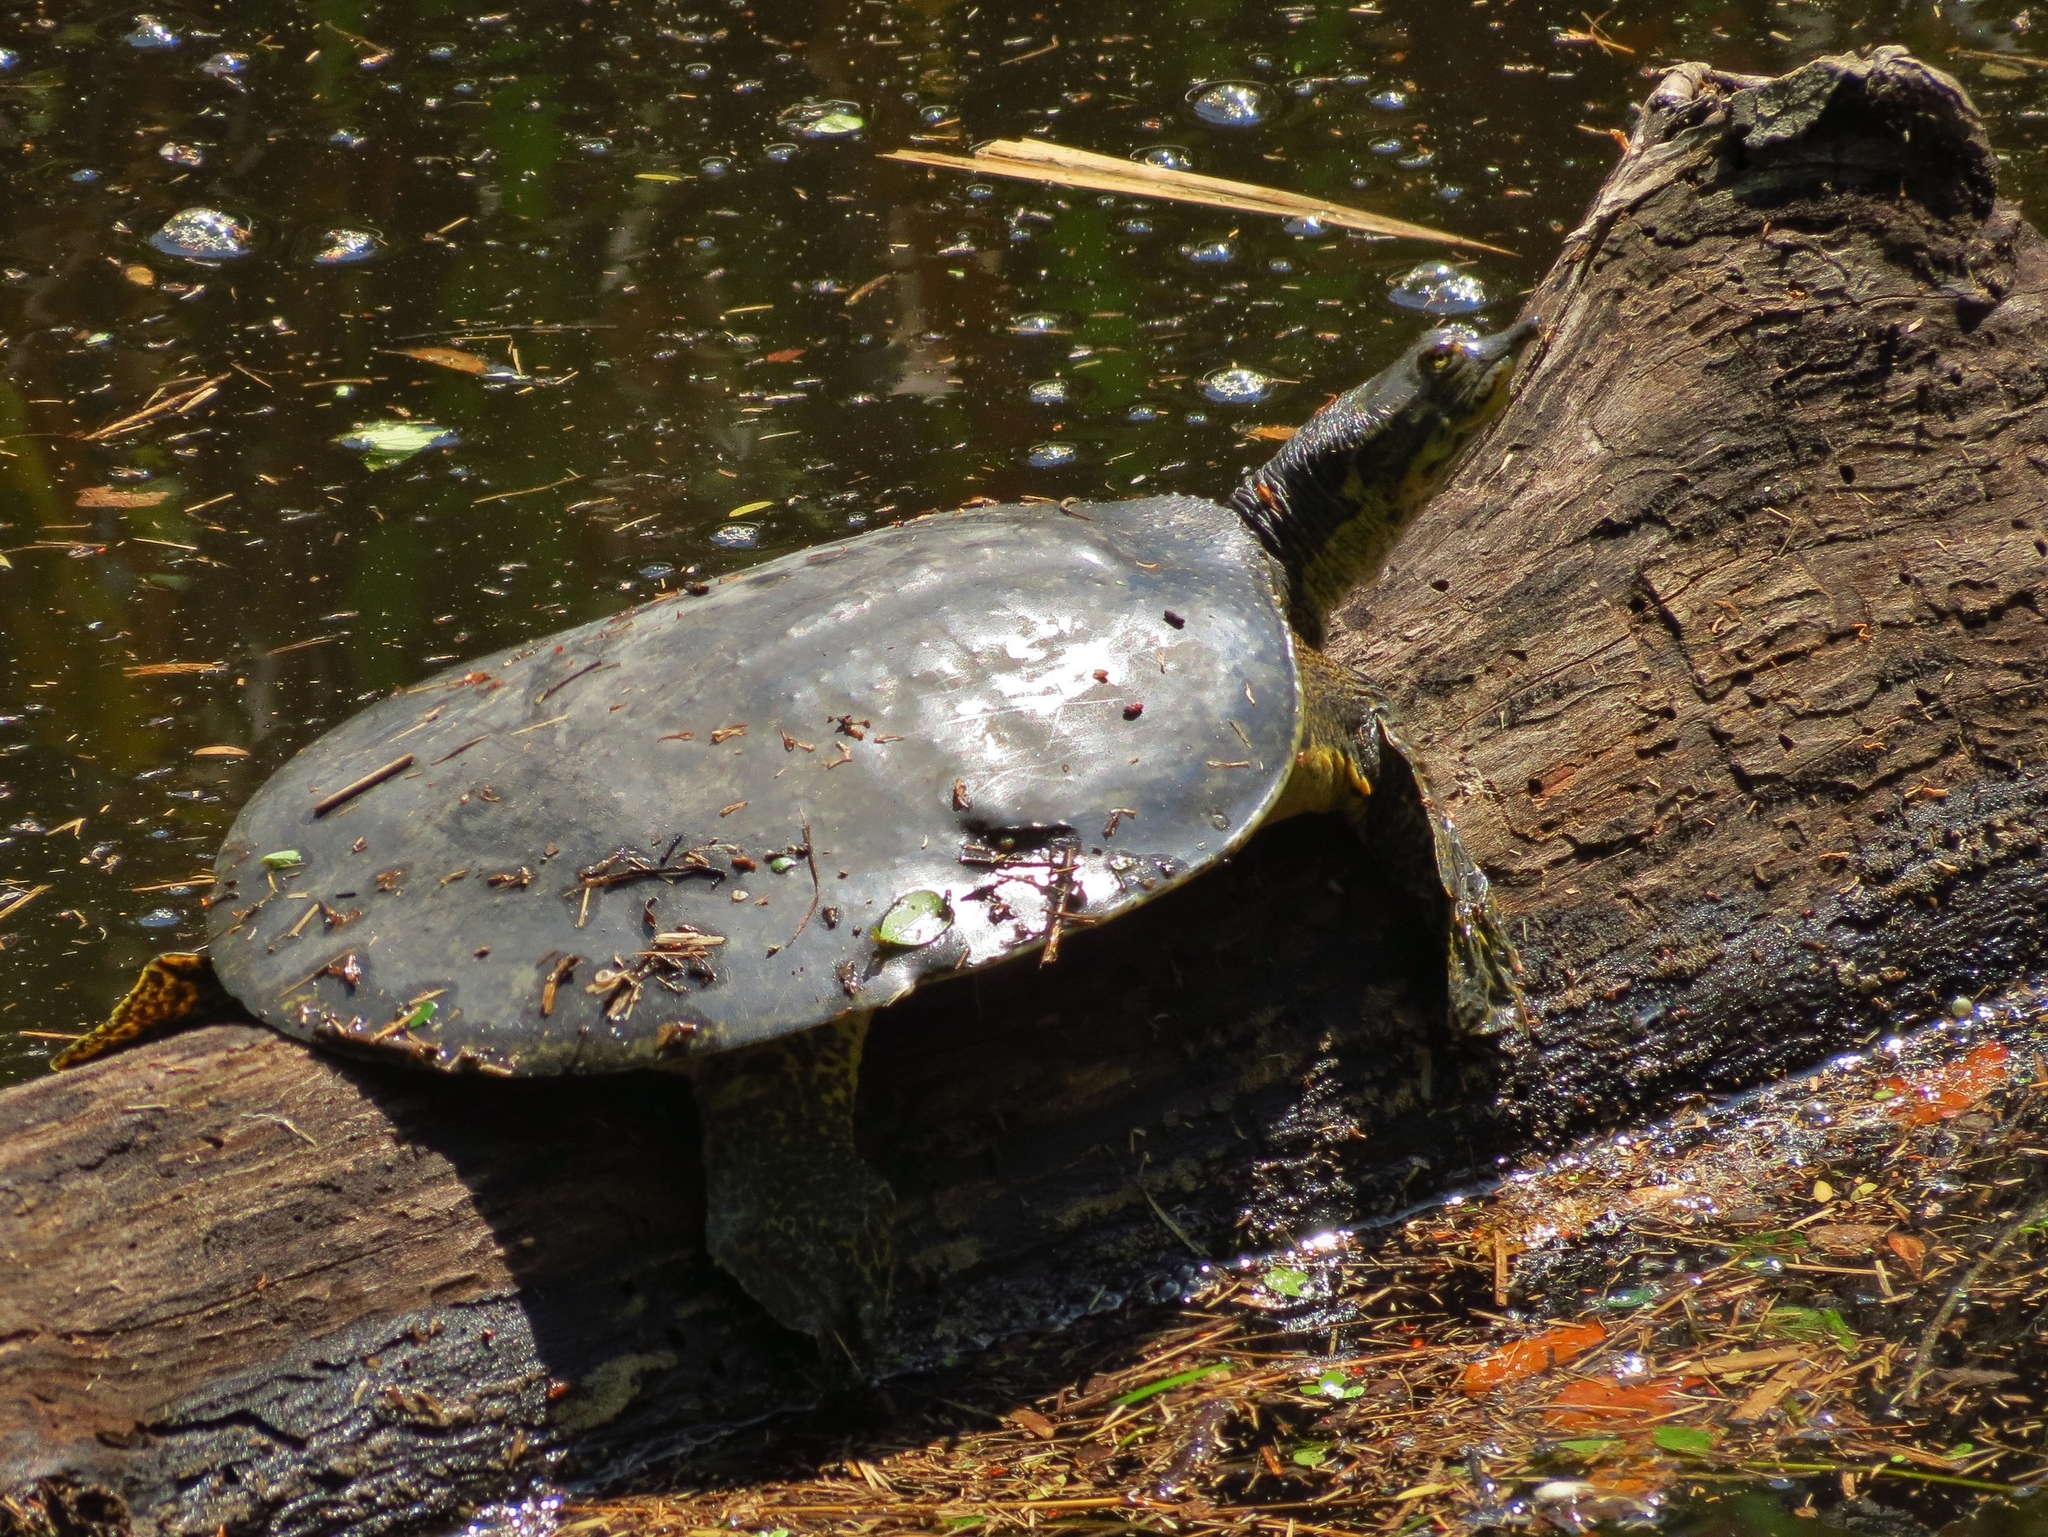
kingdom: Animalia
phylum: Chordata
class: Testudines
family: Trionychidae
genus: Apalone
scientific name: Apalone spinifera
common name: Spiny softshell turtle
